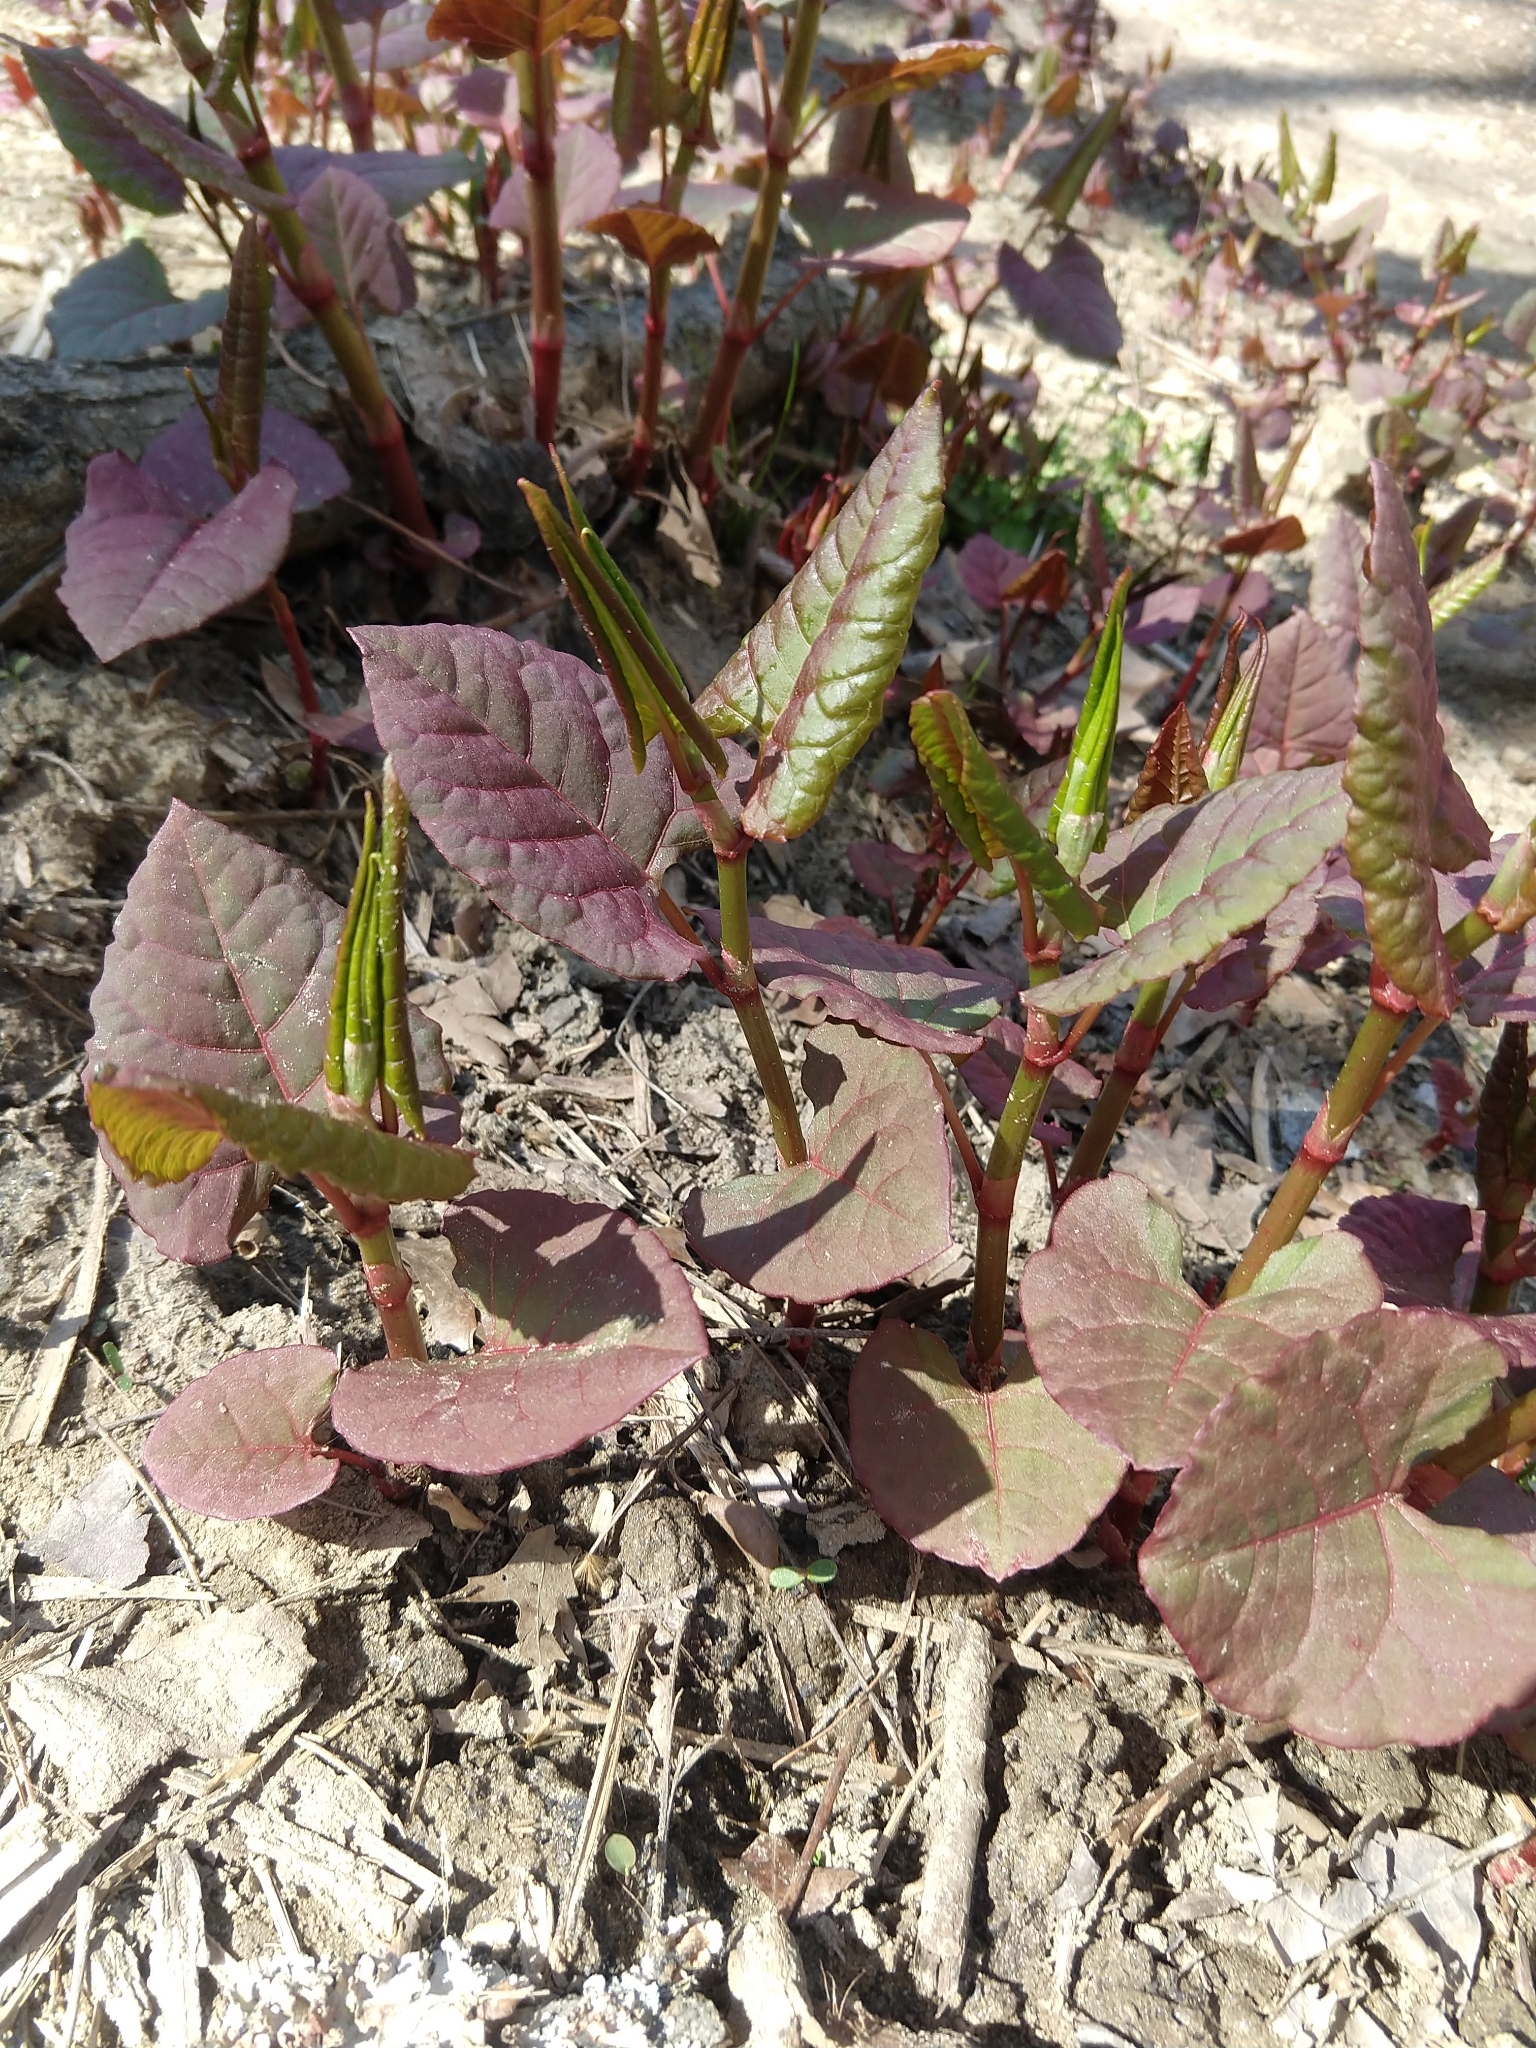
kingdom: Plantae
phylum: Tracheophyta
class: Magnoliopsida
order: Caryophyllales
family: Polygonaceae
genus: Reynoutria
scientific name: Reynoutria japonica
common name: Japanese knotweed
